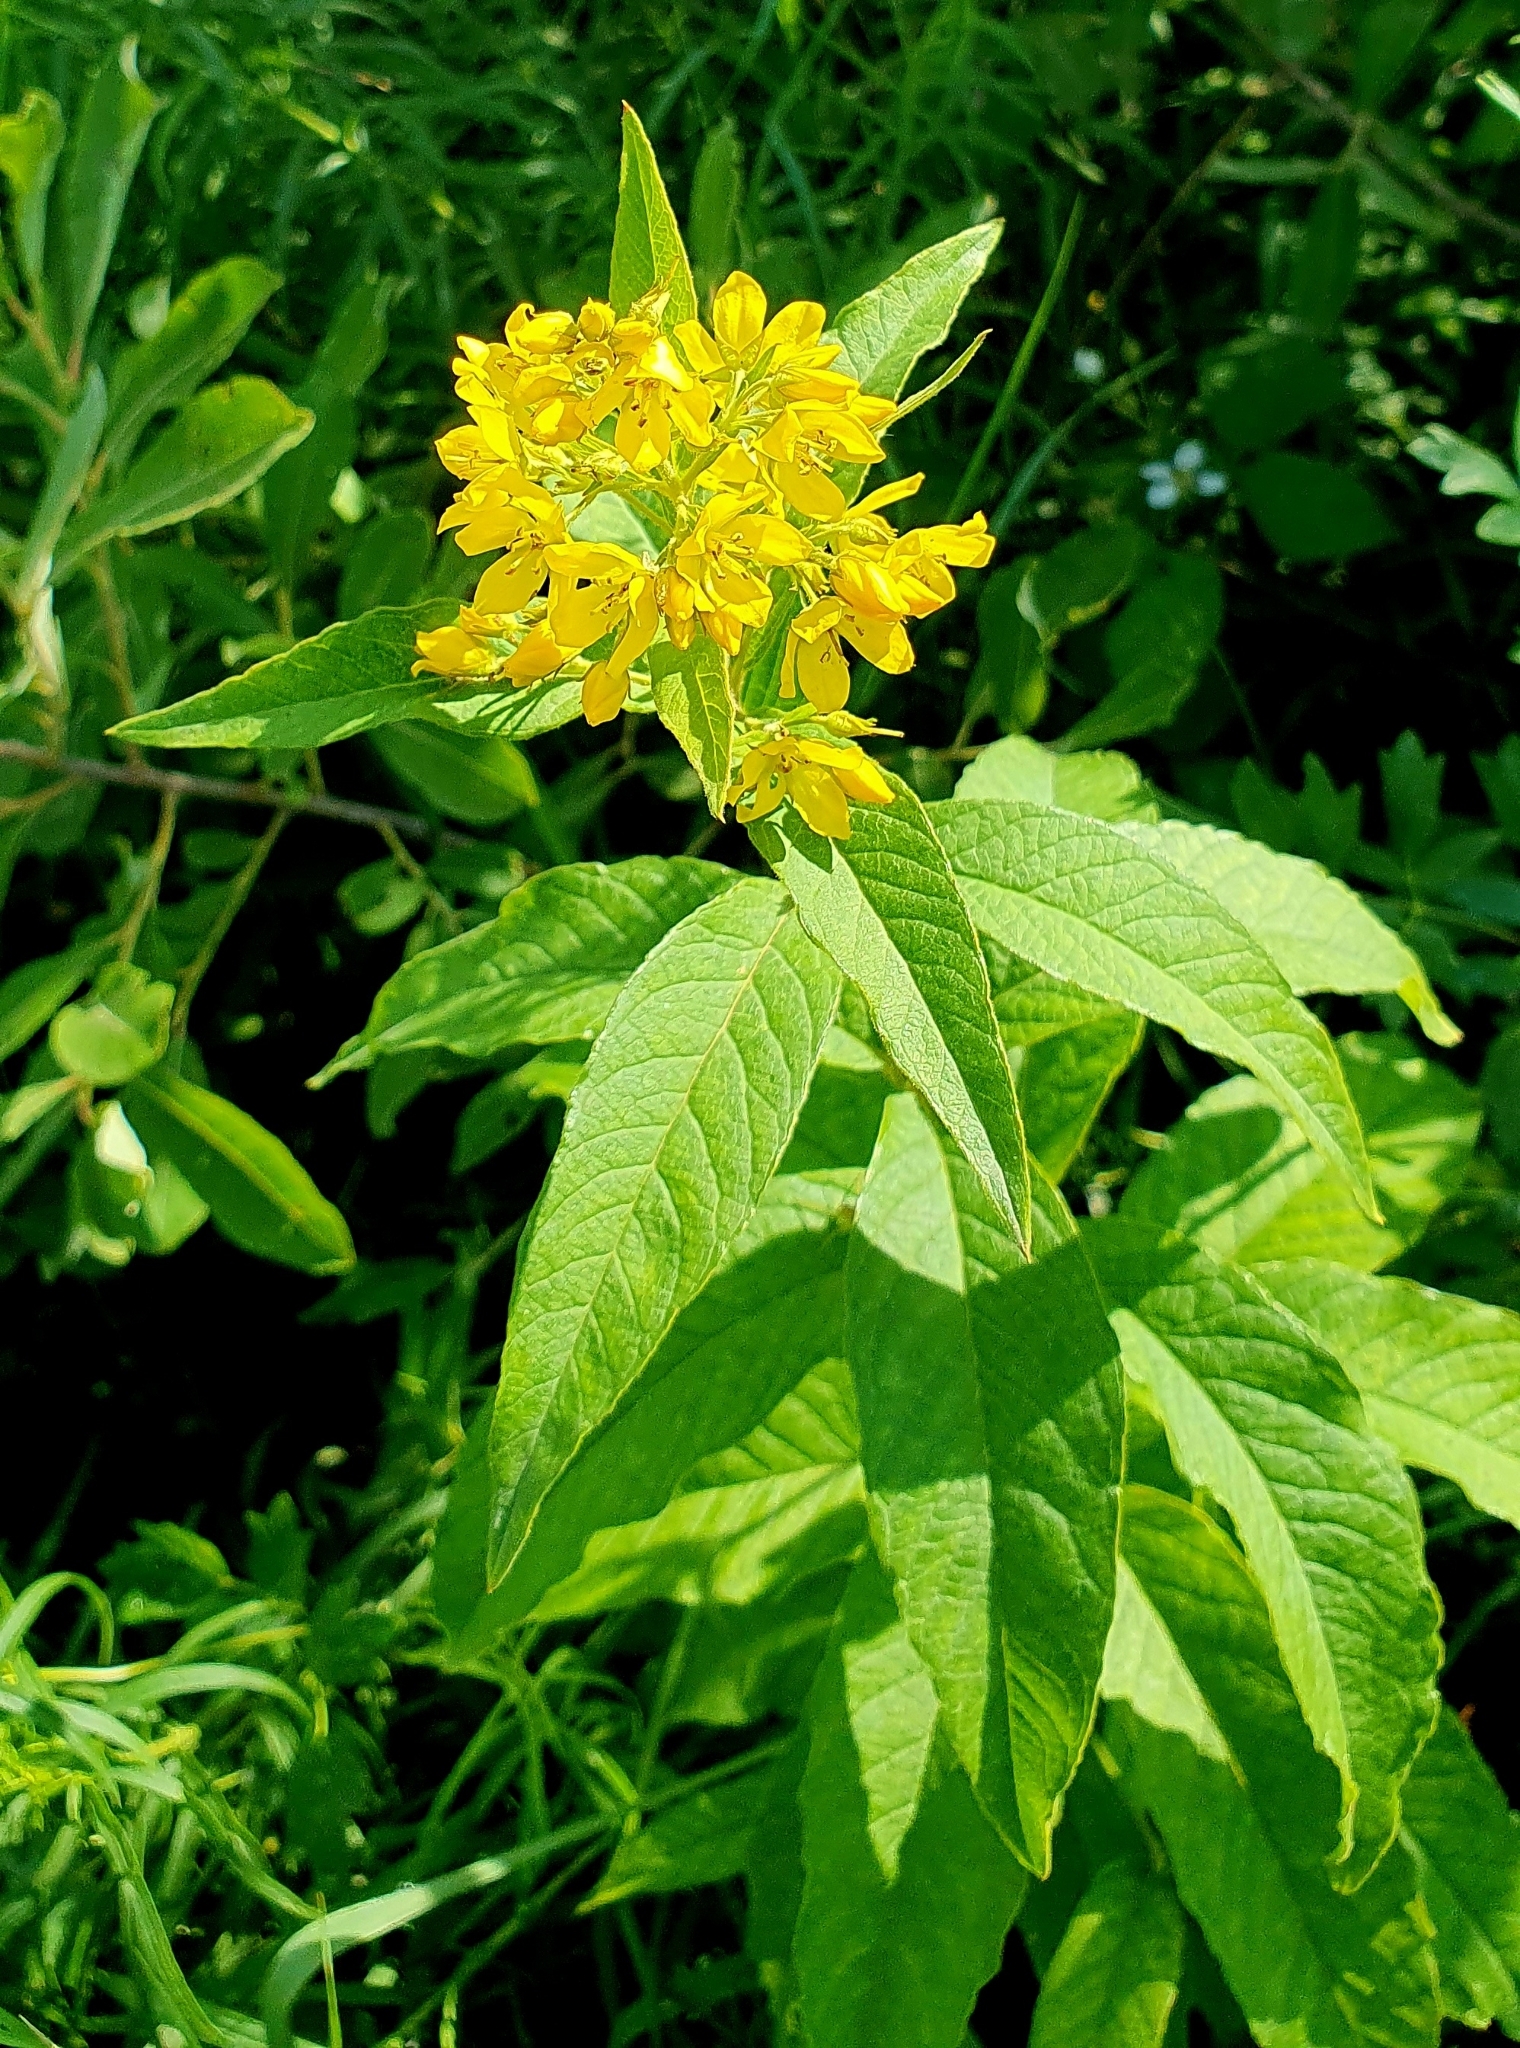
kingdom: Plantae
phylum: Tracheophyta
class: Magnoliopsida
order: Ericales
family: Primulaceae
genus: Lysimachia
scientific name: Lysimachia vulgaris
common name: Yellow loosestrife
